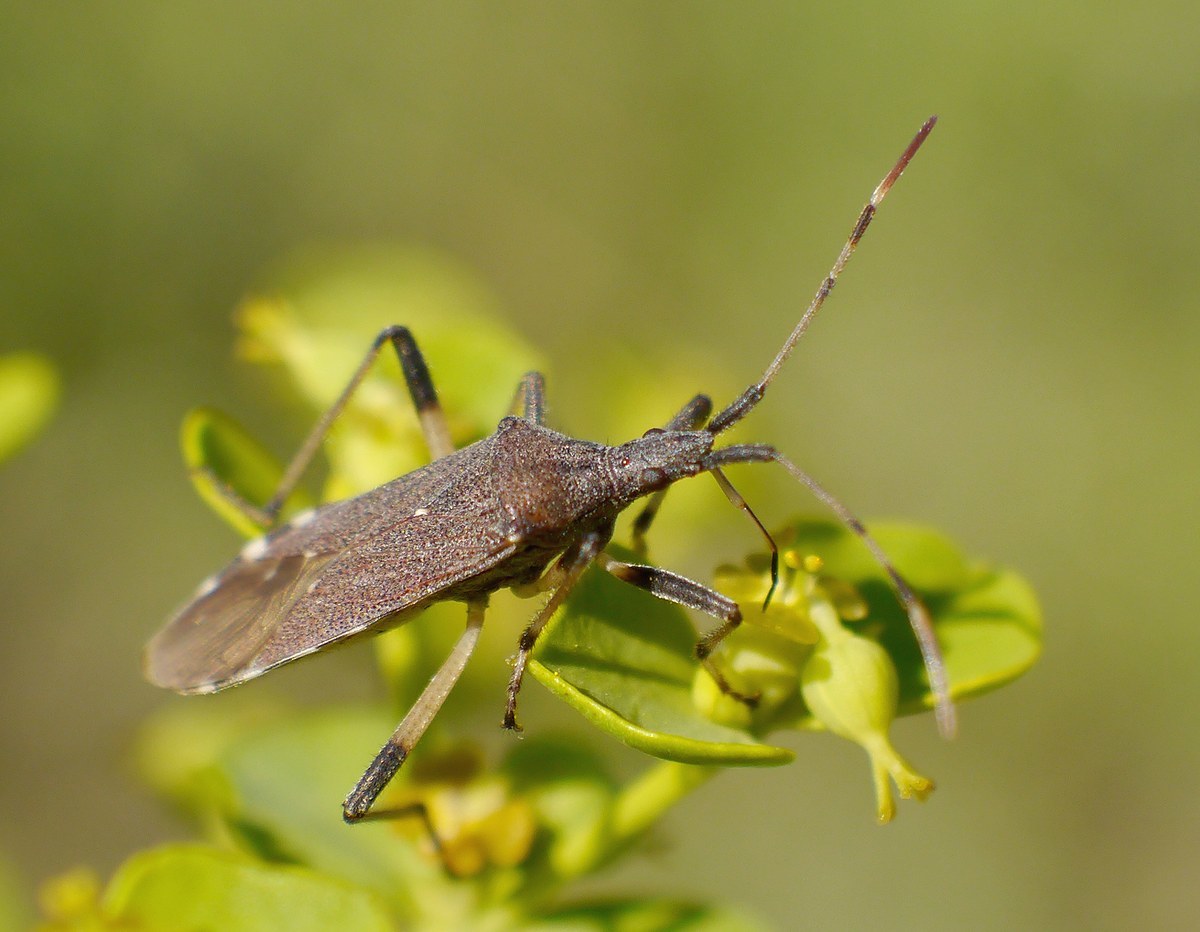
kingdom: Animalia
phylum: Arthropoda
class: Insecta
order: Hemiptera
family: Stenocephalidae
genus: Dicranocephalus
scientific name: Dicranocephalus albipes
